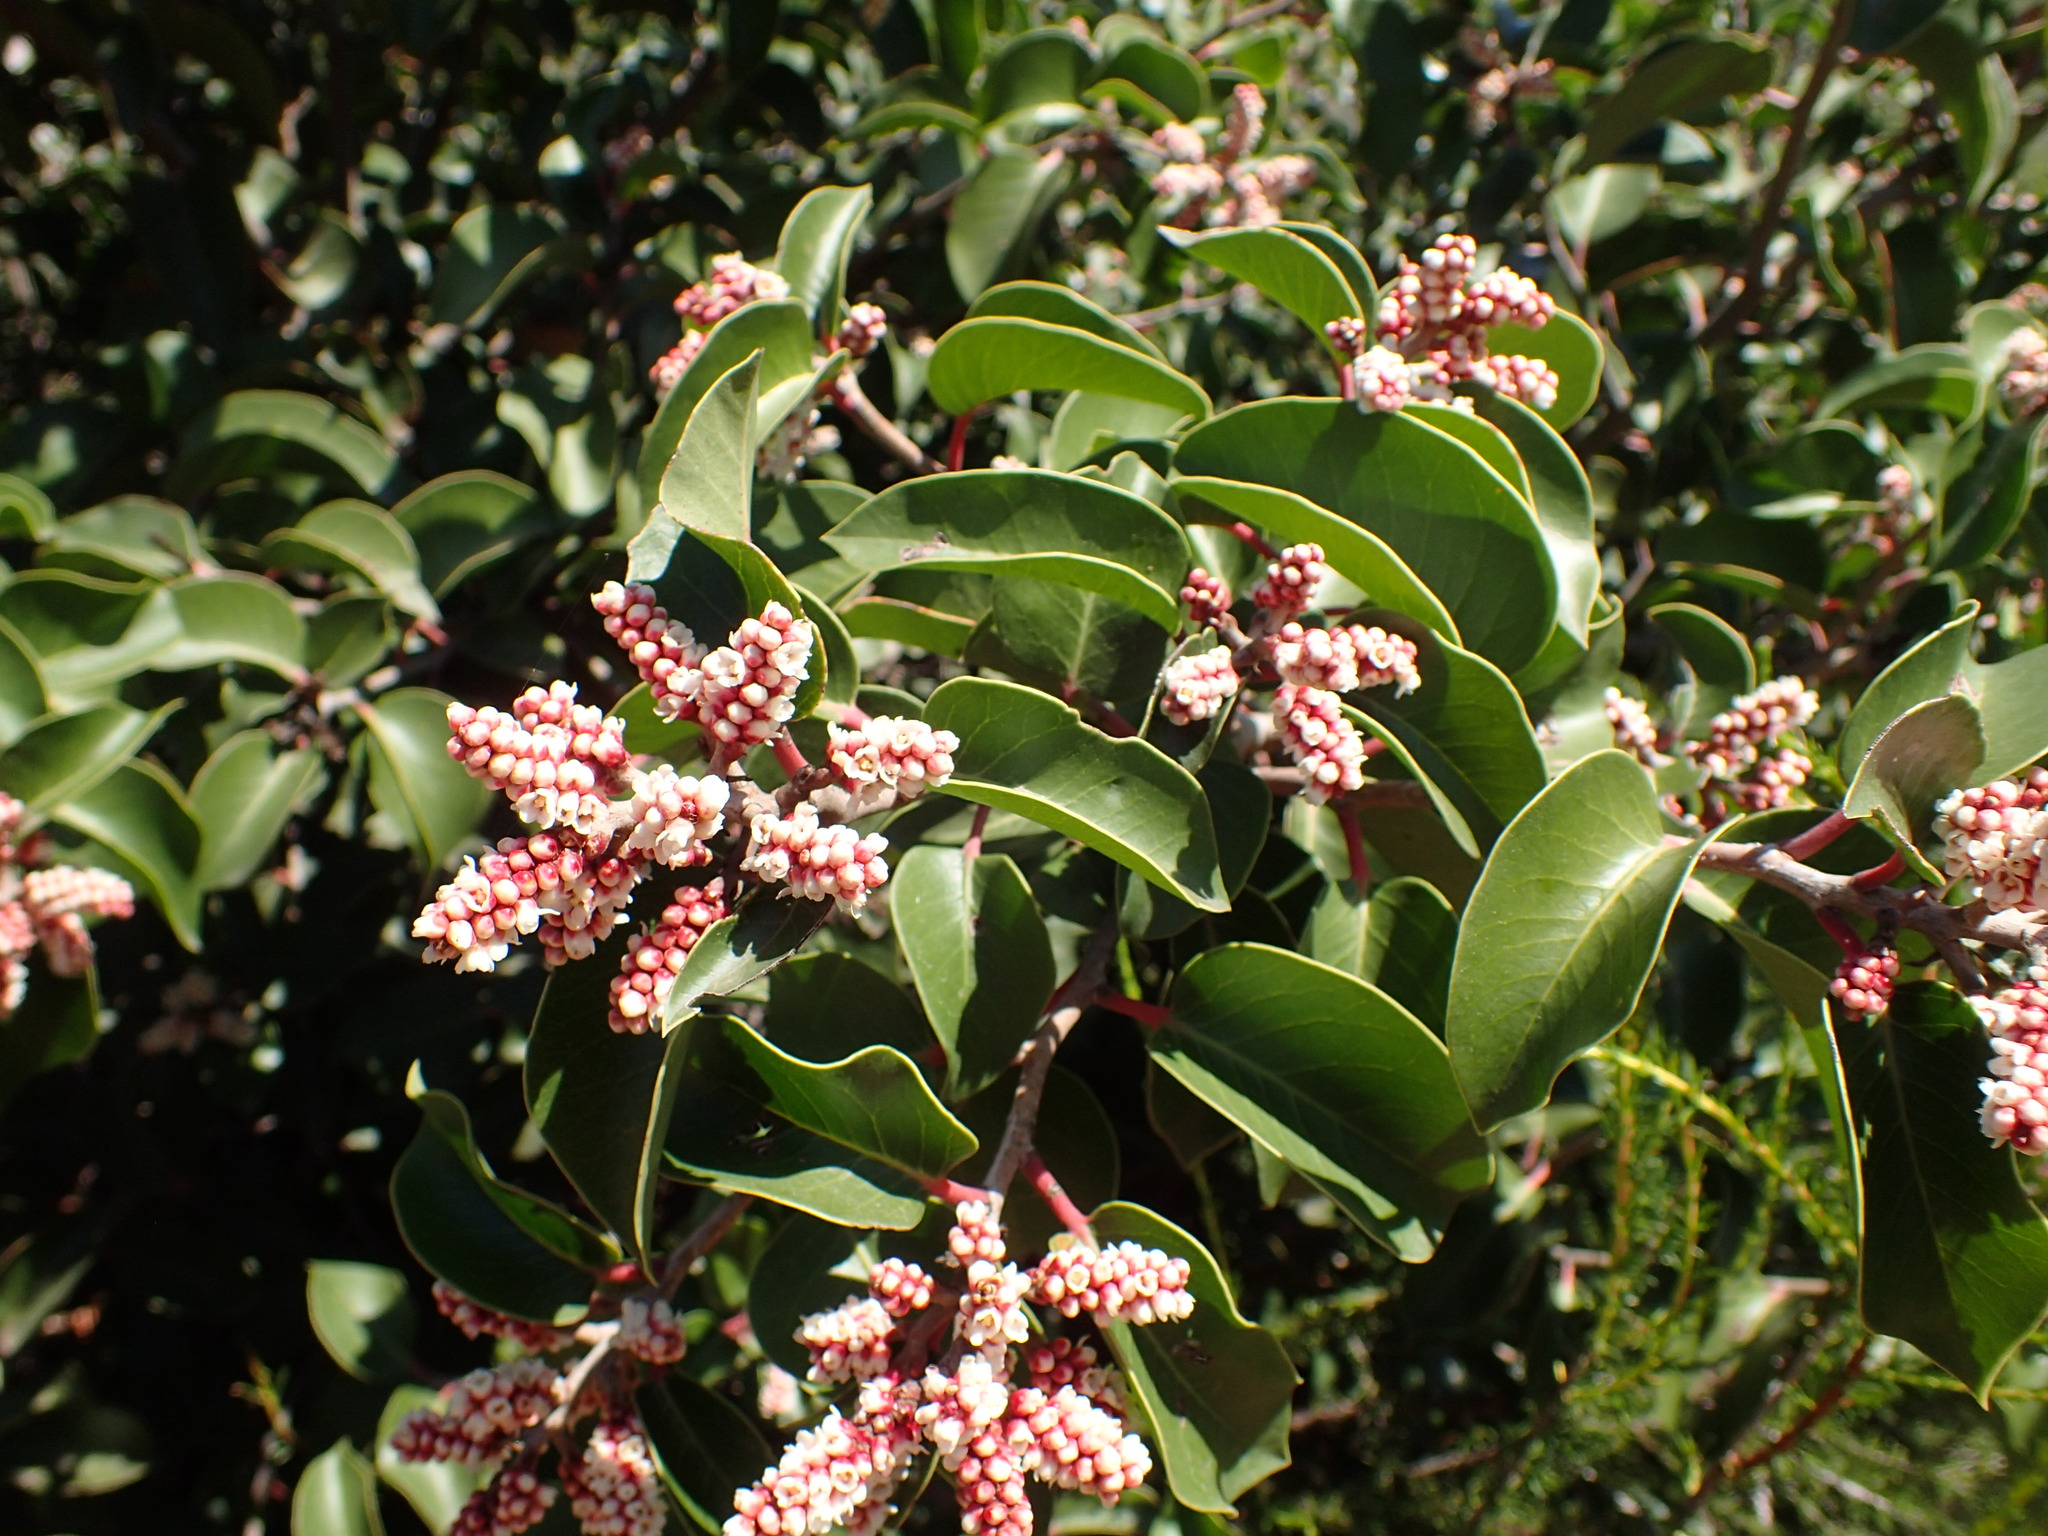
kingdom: Plantae
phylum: Tracheophyta
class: Magnoliopsida
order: Sapindales
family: Anacardiaceae
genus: Rhus
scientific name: Rhus ovata
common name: Sugar sumac
